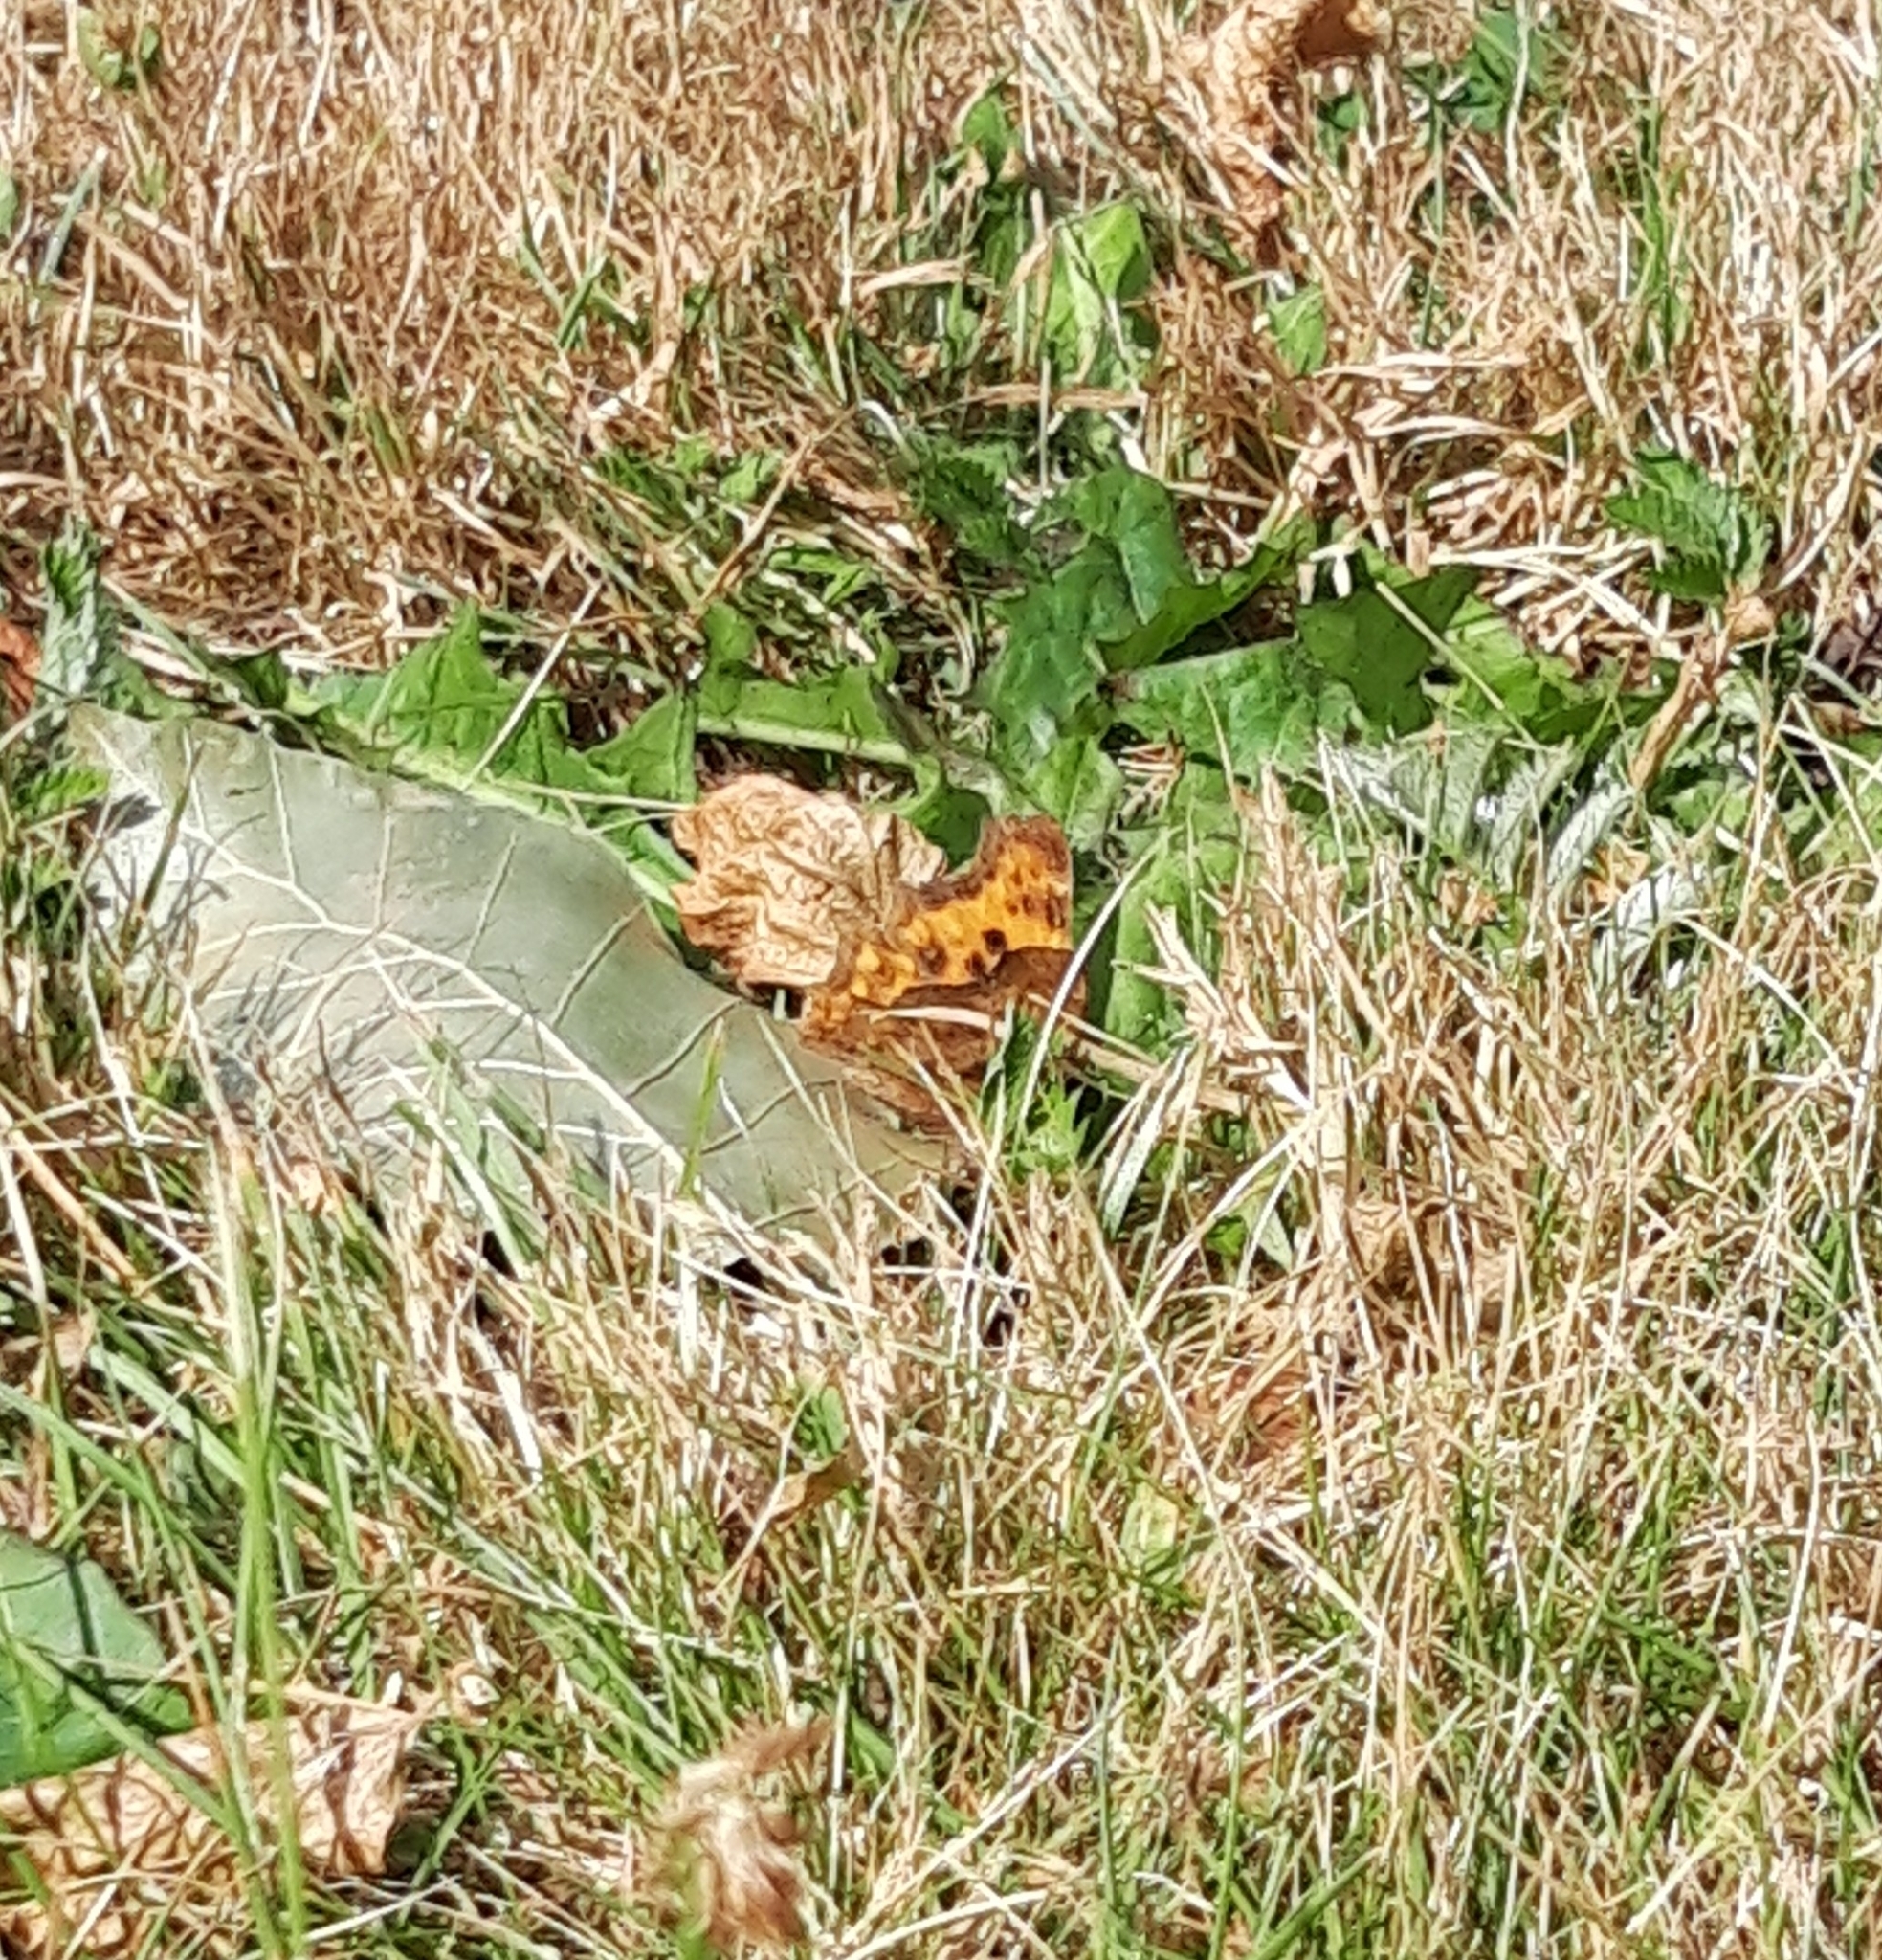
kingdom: Animalia
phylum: Arthropoda
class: Insecta
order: Lepidoptera
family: Nymphalidae
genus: Polygonia
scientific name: Polygonia c-album
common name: Comma
